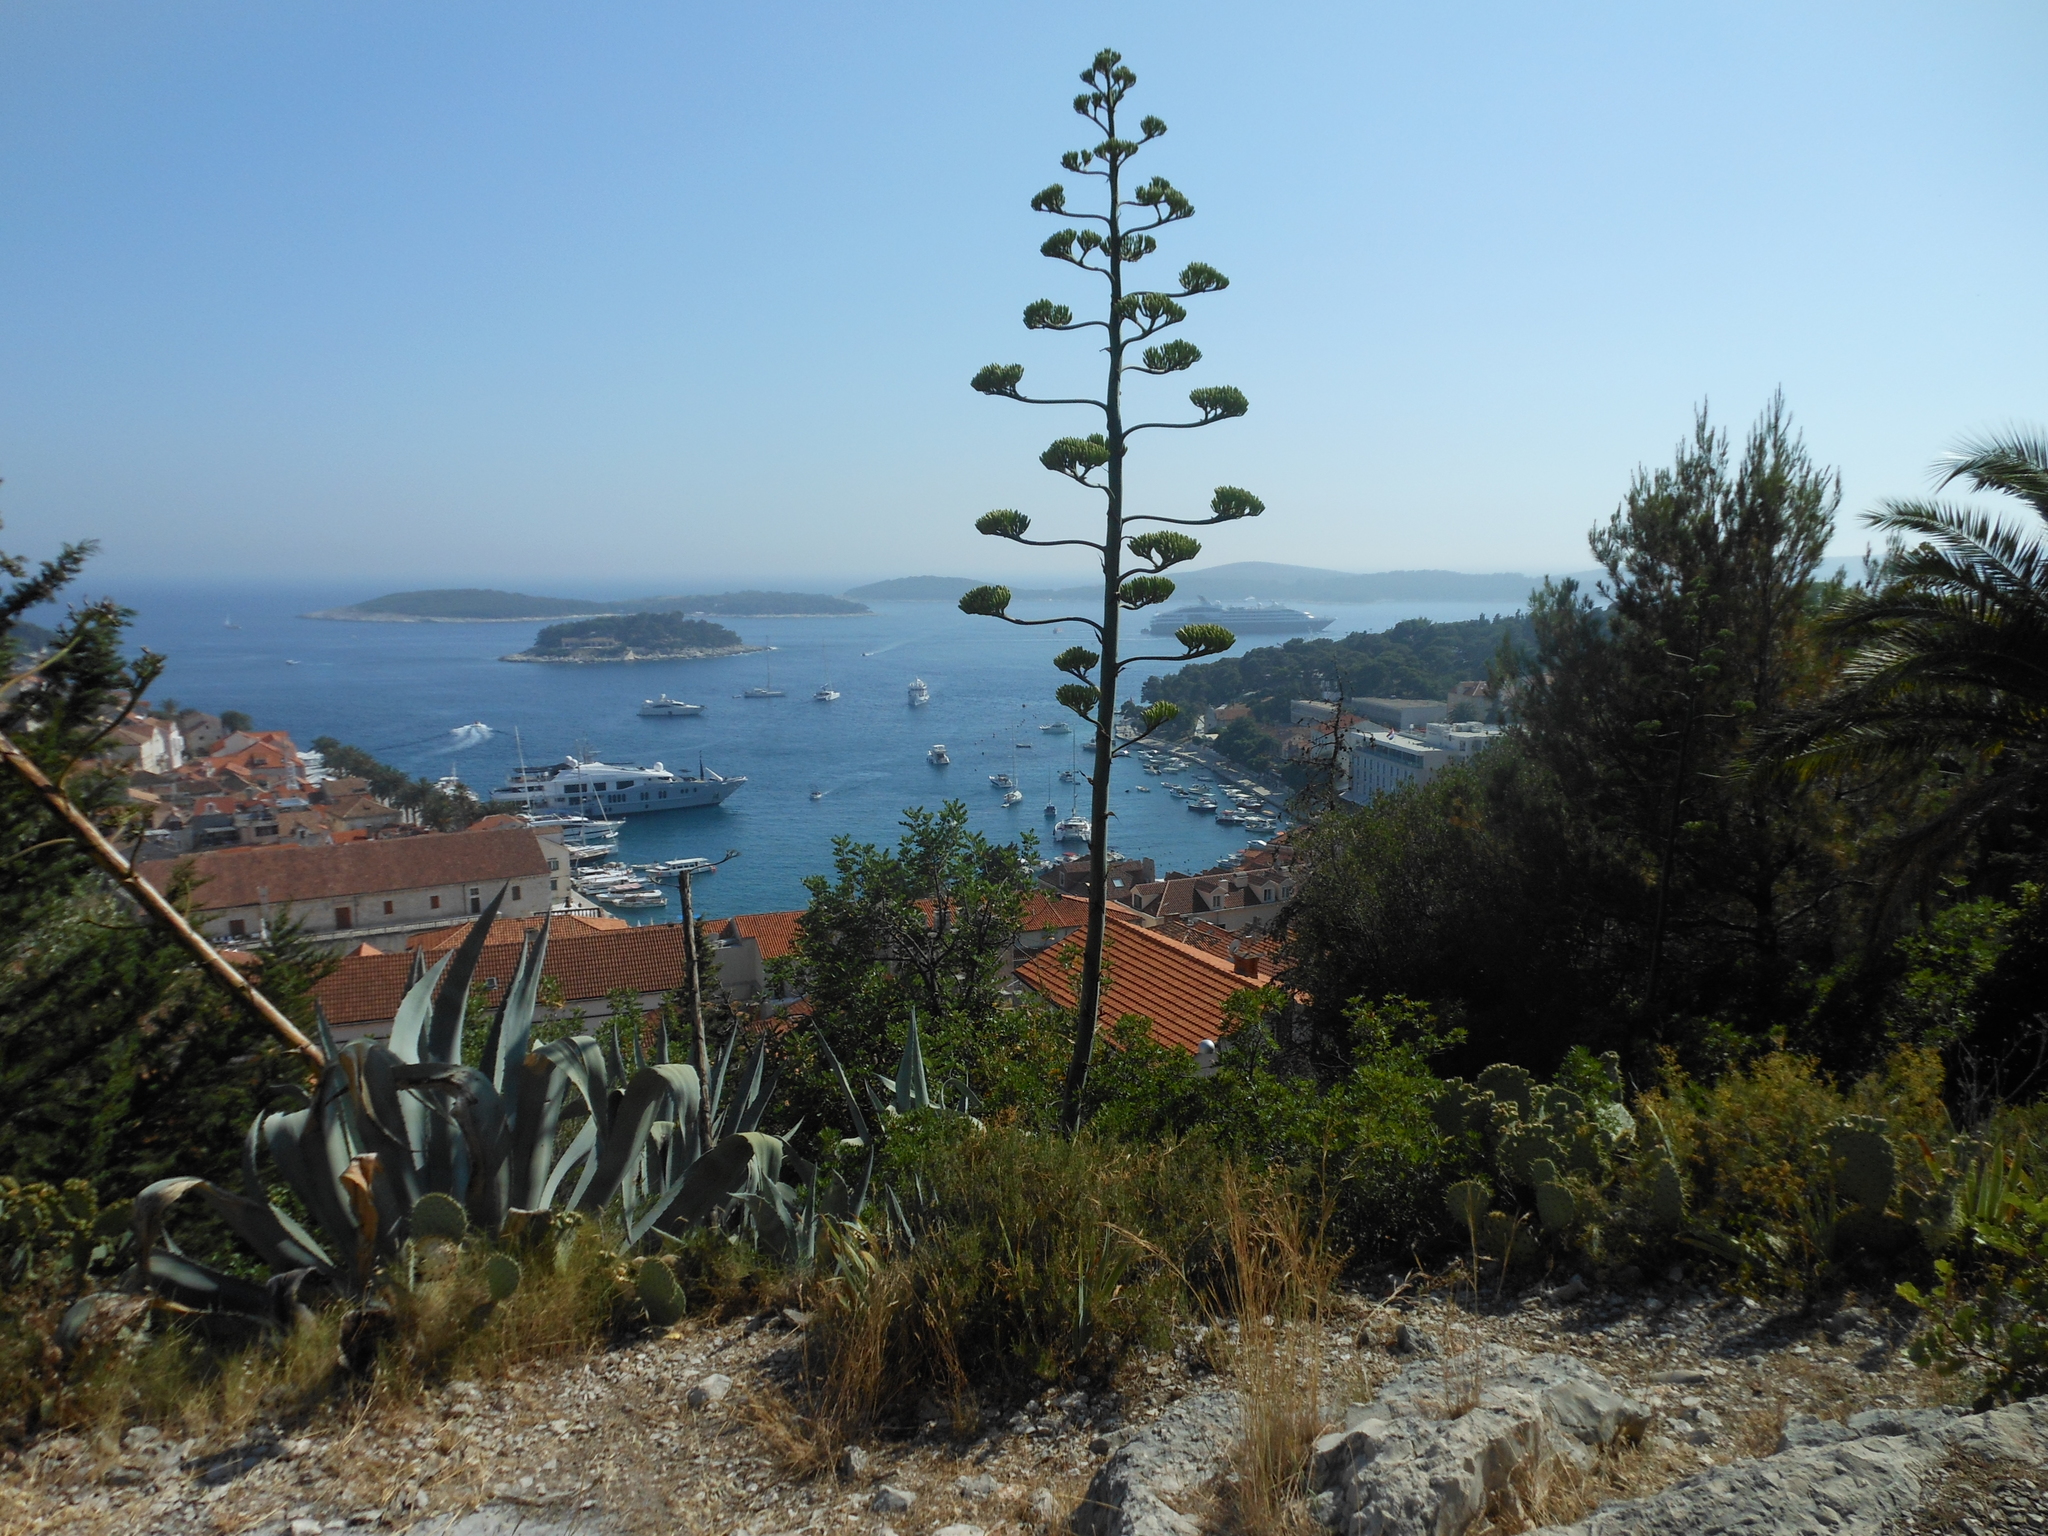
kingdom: Plantae
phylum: Tracheophyta
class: Liliopsida
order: Asparagales
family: Asparagaceae
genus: Agave
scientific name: Agave americana
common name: Centuryplant
